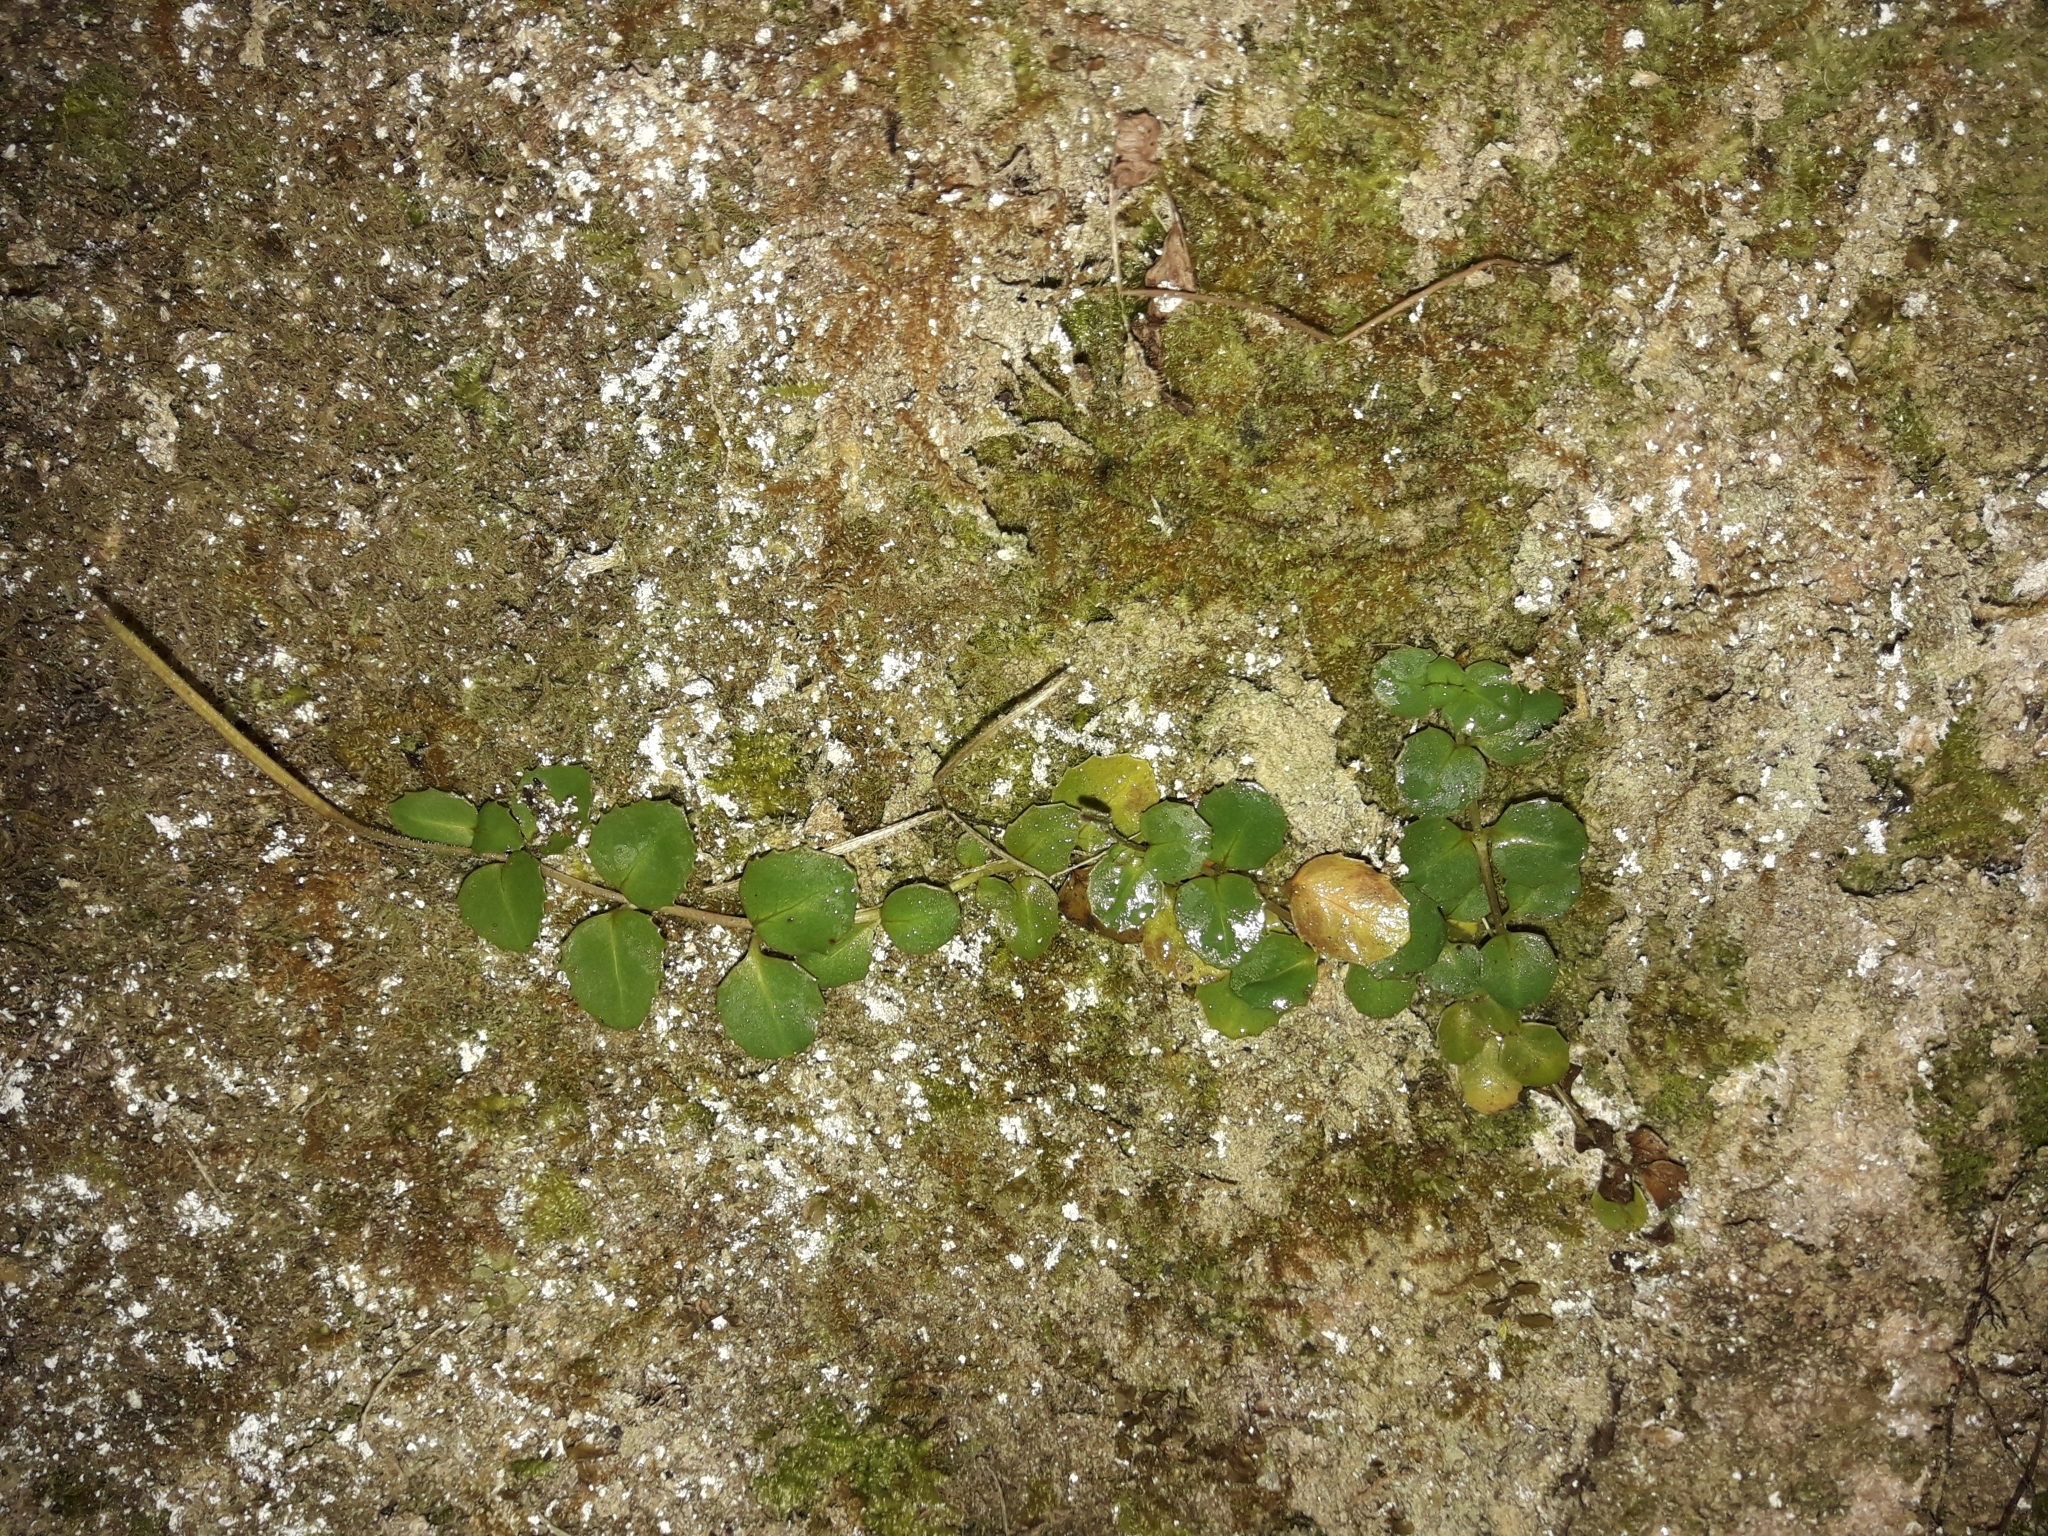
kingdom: Plantae
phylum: Tracheophyta
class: Magnoliopsida
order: Myrtales
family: Onagraceae
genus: Epilobium
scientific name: Epilobium rotundifolium
